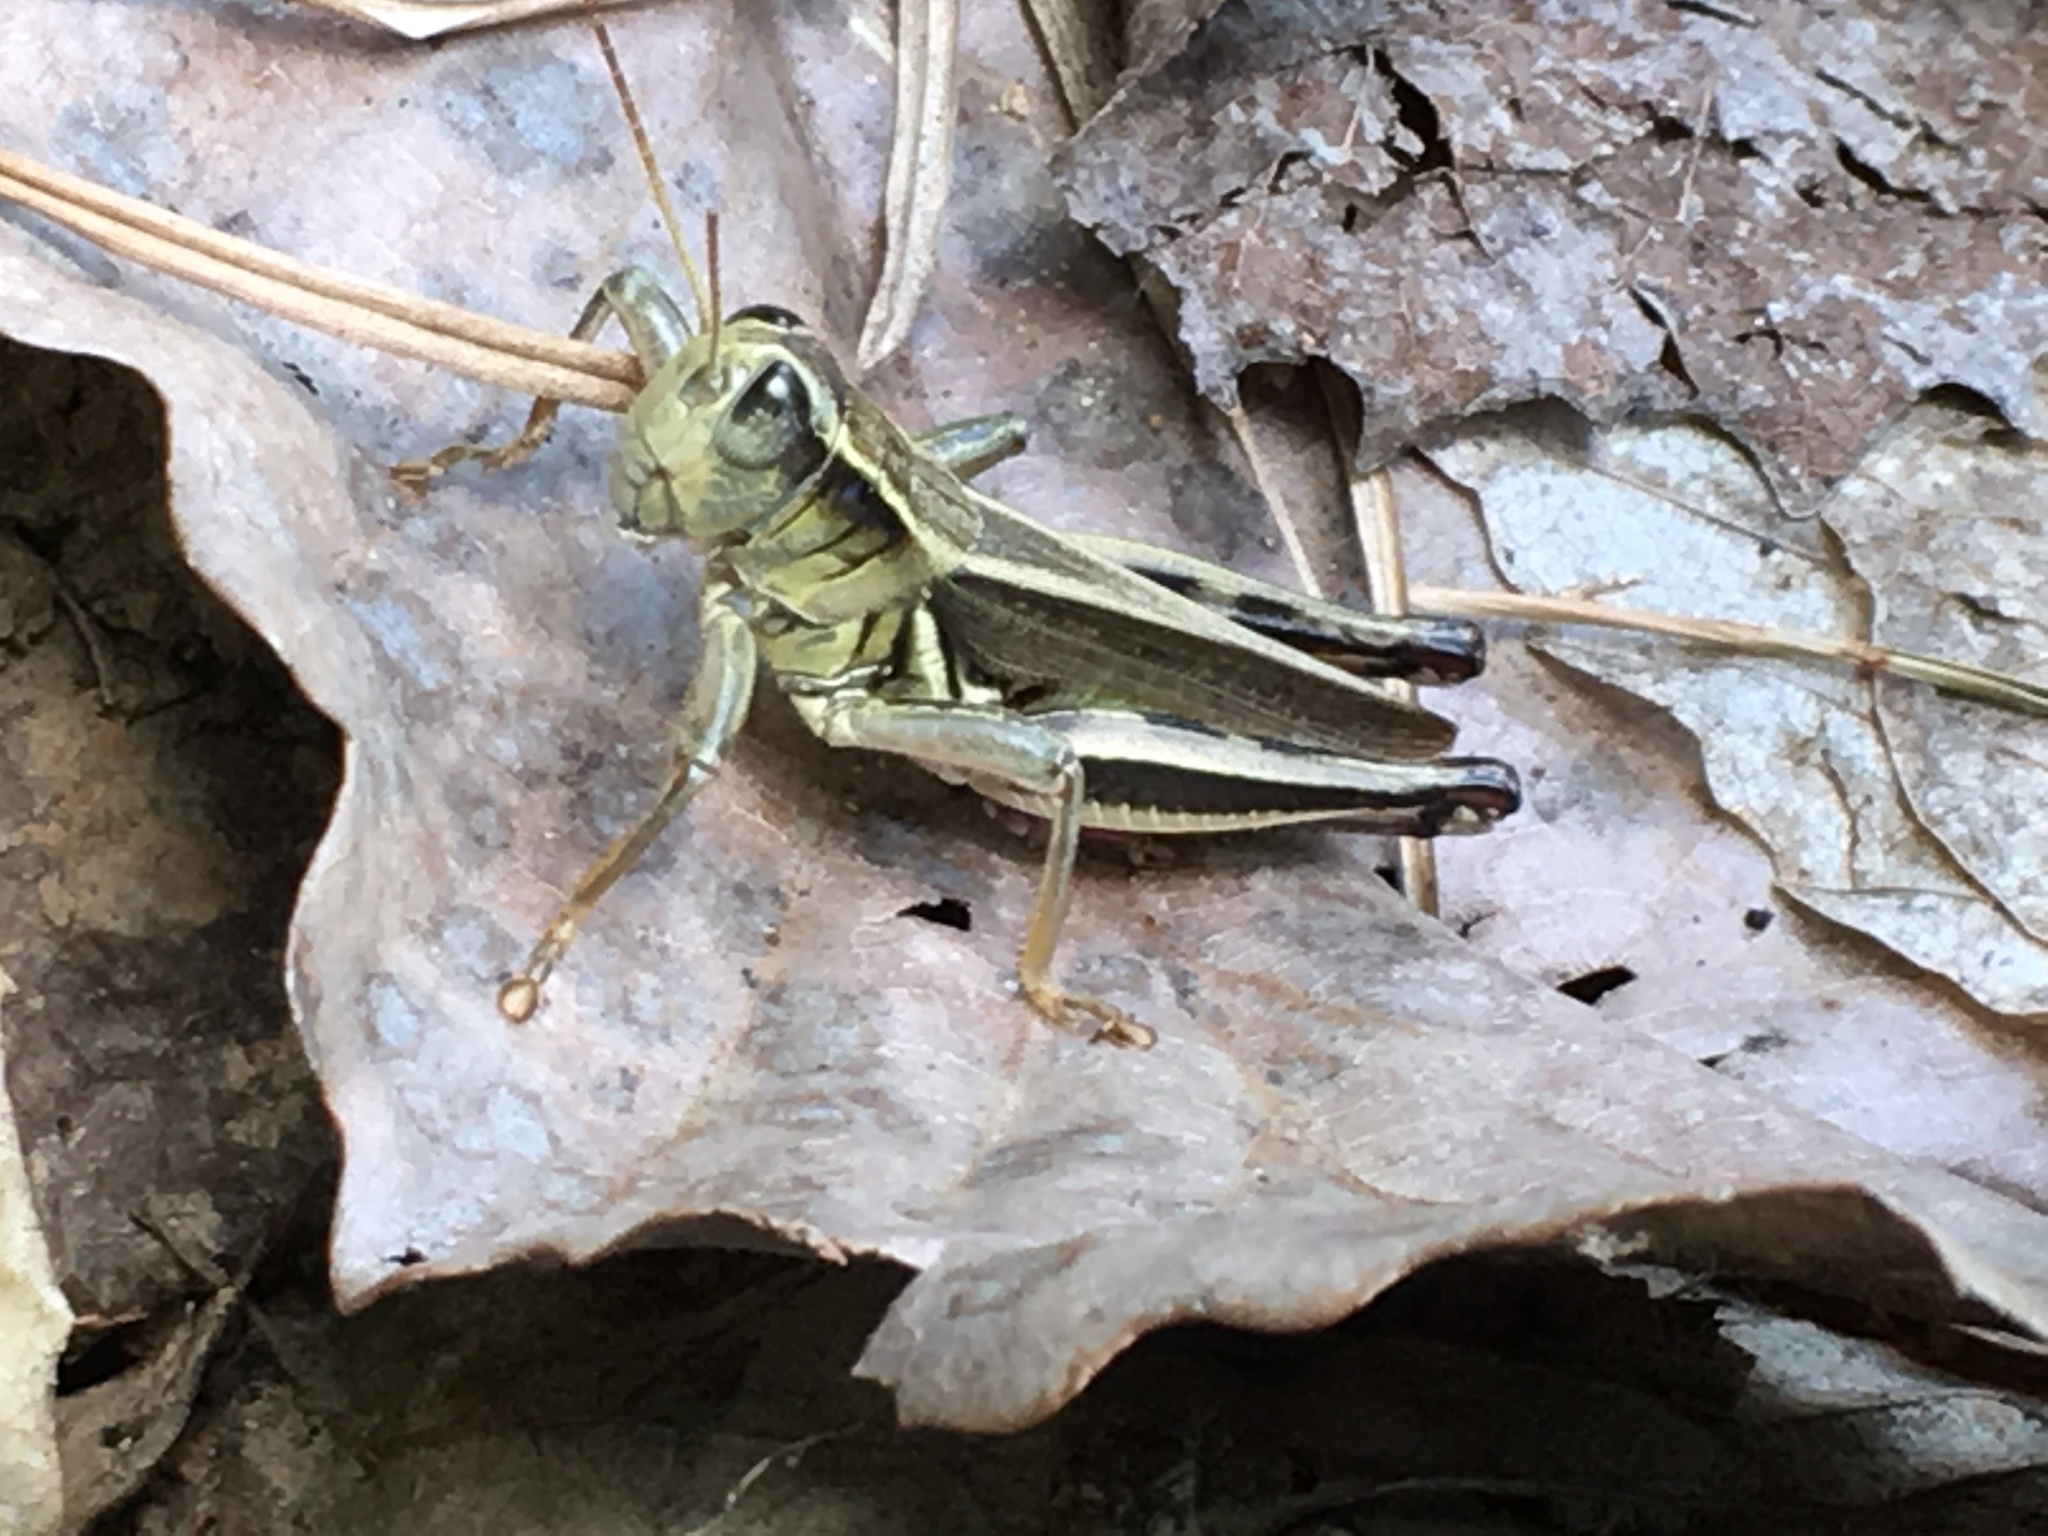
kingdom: Animalia
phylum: Arthropoda
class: Insecta
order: Orthoptera
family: Acrididae
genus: Melanoplus
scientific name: Melanoplus bivittatus
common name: Two-striped grasshopper
